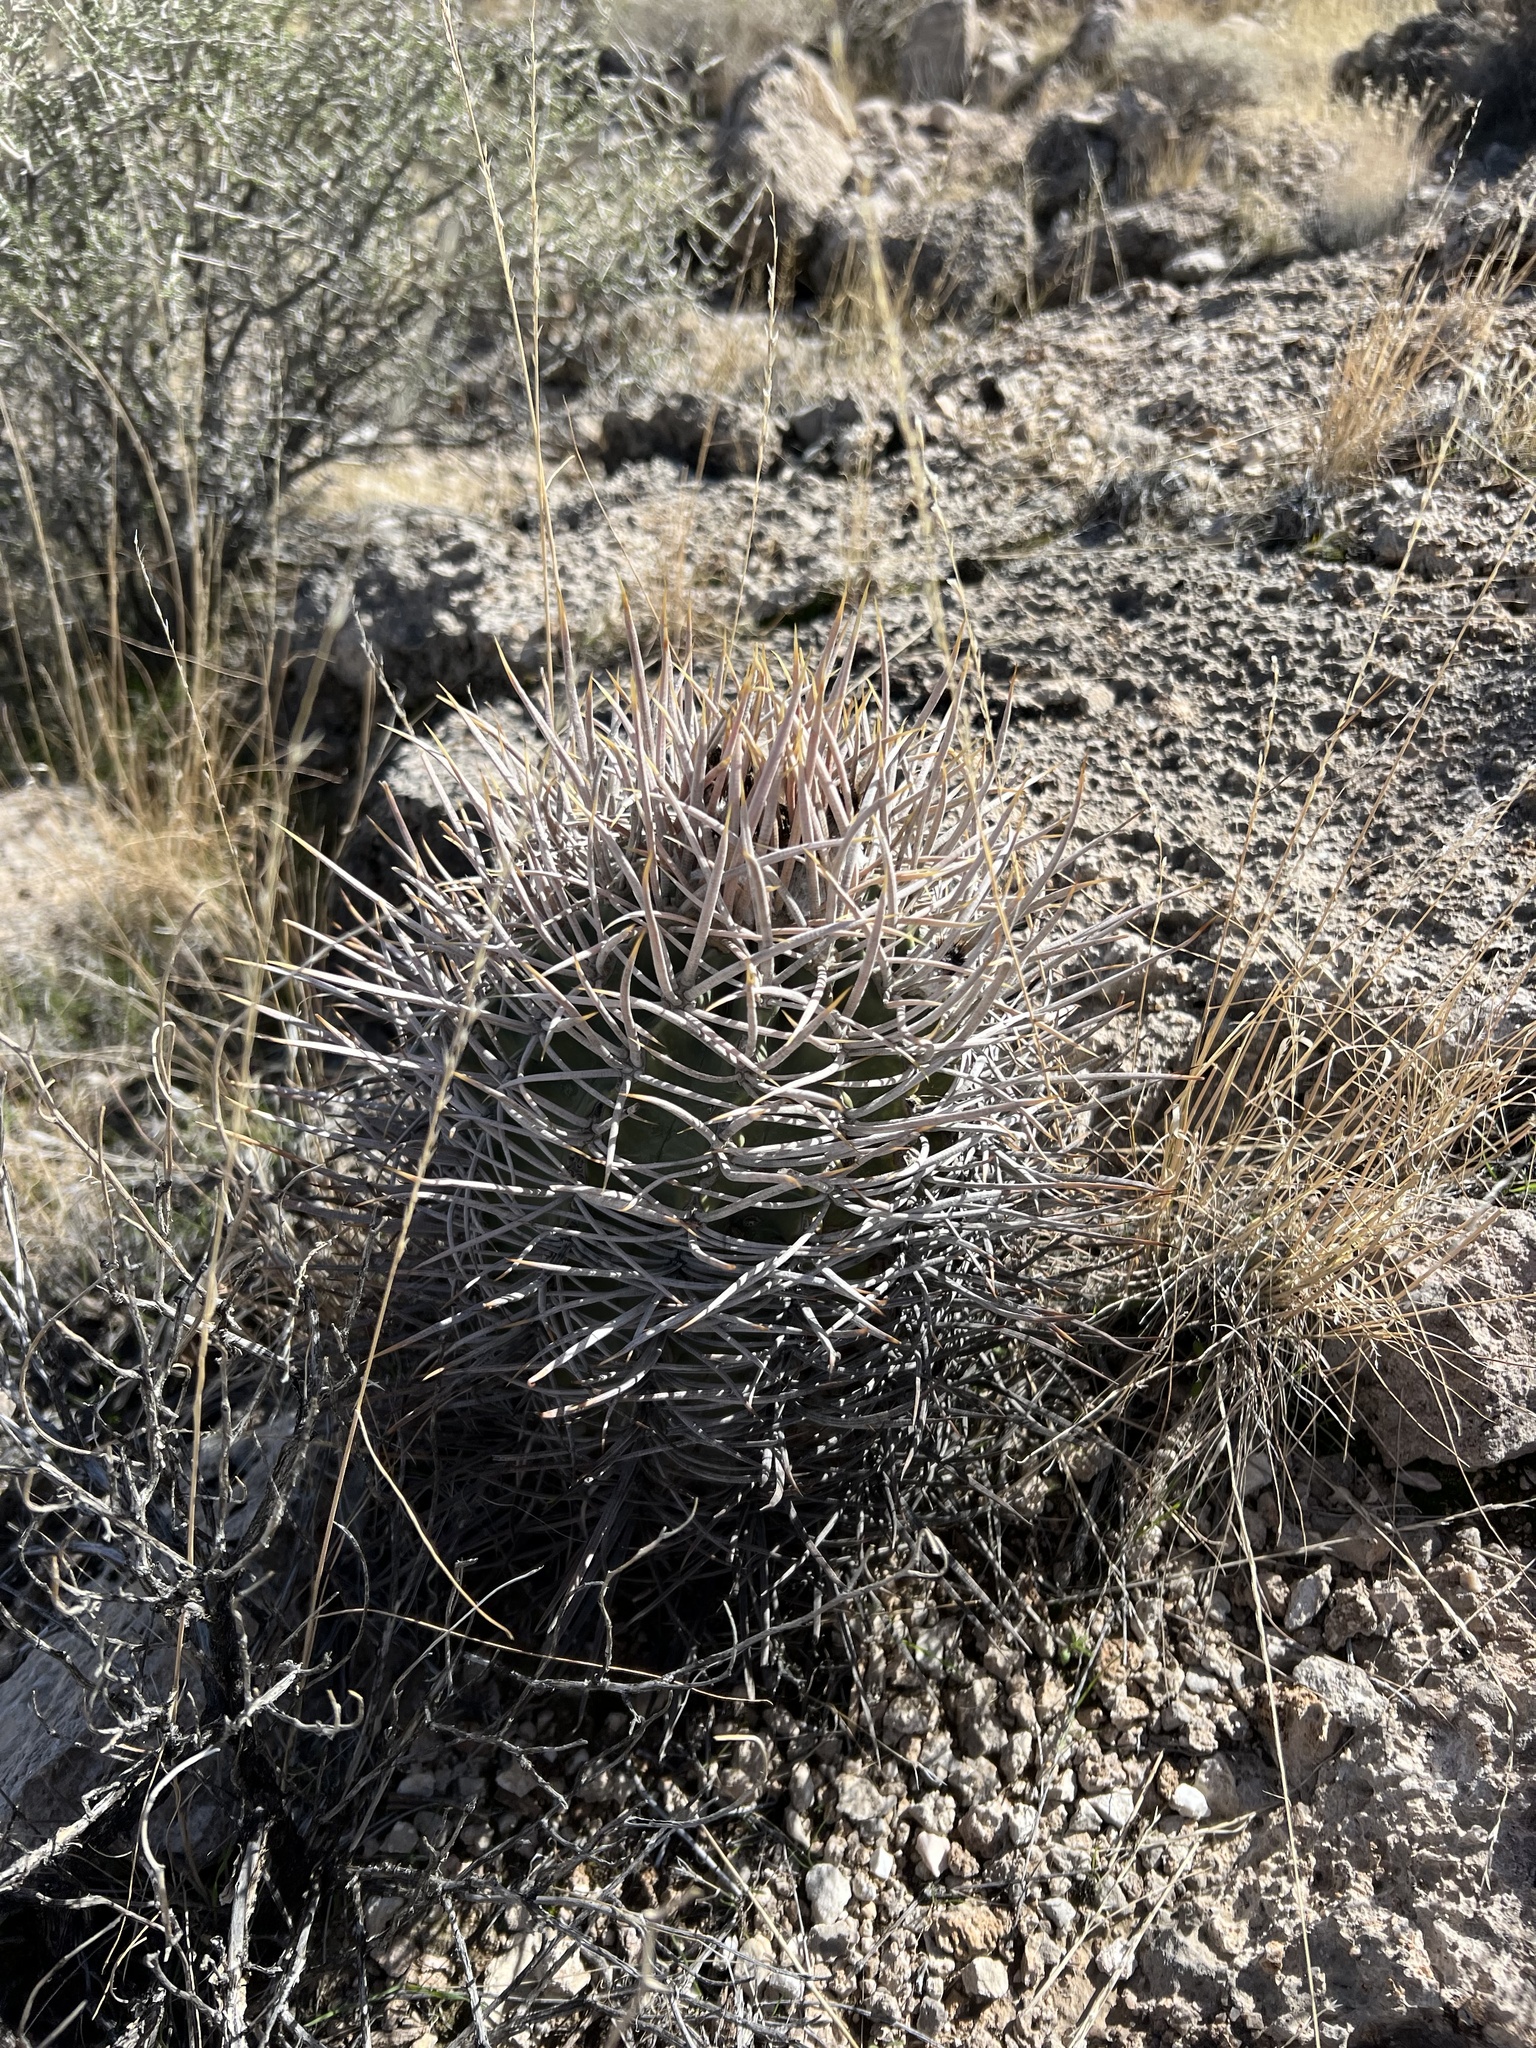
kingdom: Plantae
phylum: Tracheophyta
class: Magnoliopsida
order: Caryophyllales
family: Cactaceae
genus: Echinocactus
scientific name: Echinocactus polycephalus
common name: Cottontop cactus
